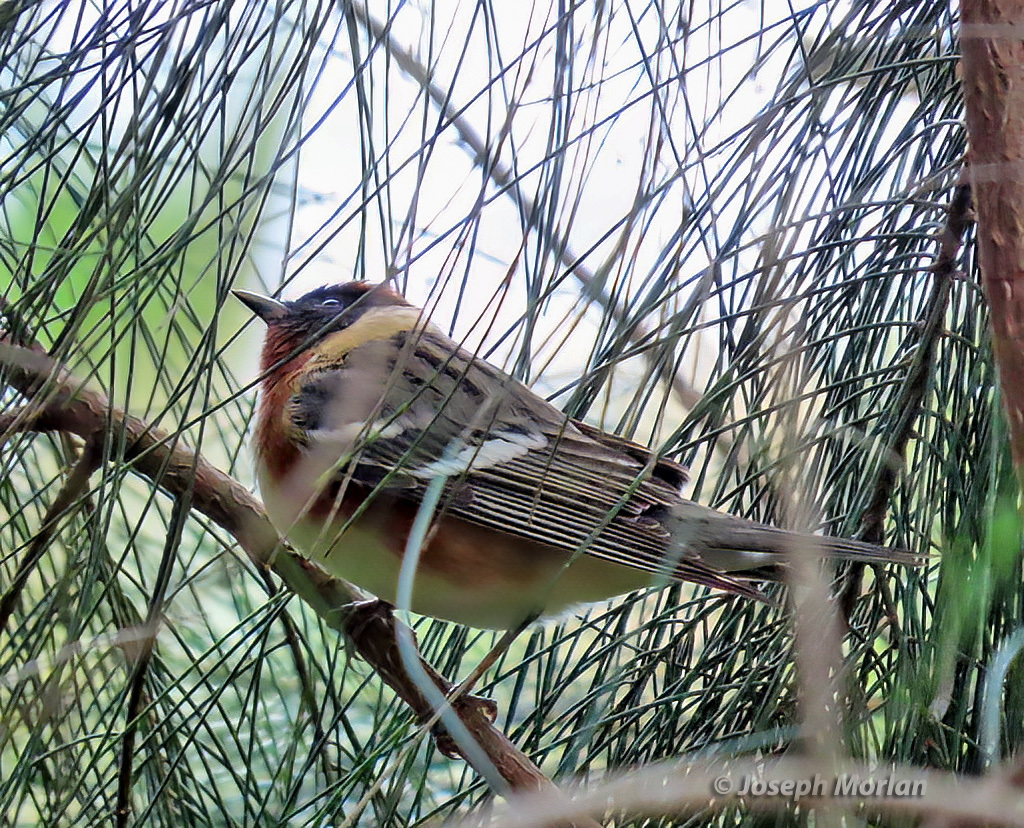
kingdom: Animalia
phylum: Chordata
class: Aves
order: Passeriformes
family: Parulidae
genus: Setophaga
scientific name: Setophaga castanea
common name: Bay-breasted warbler
